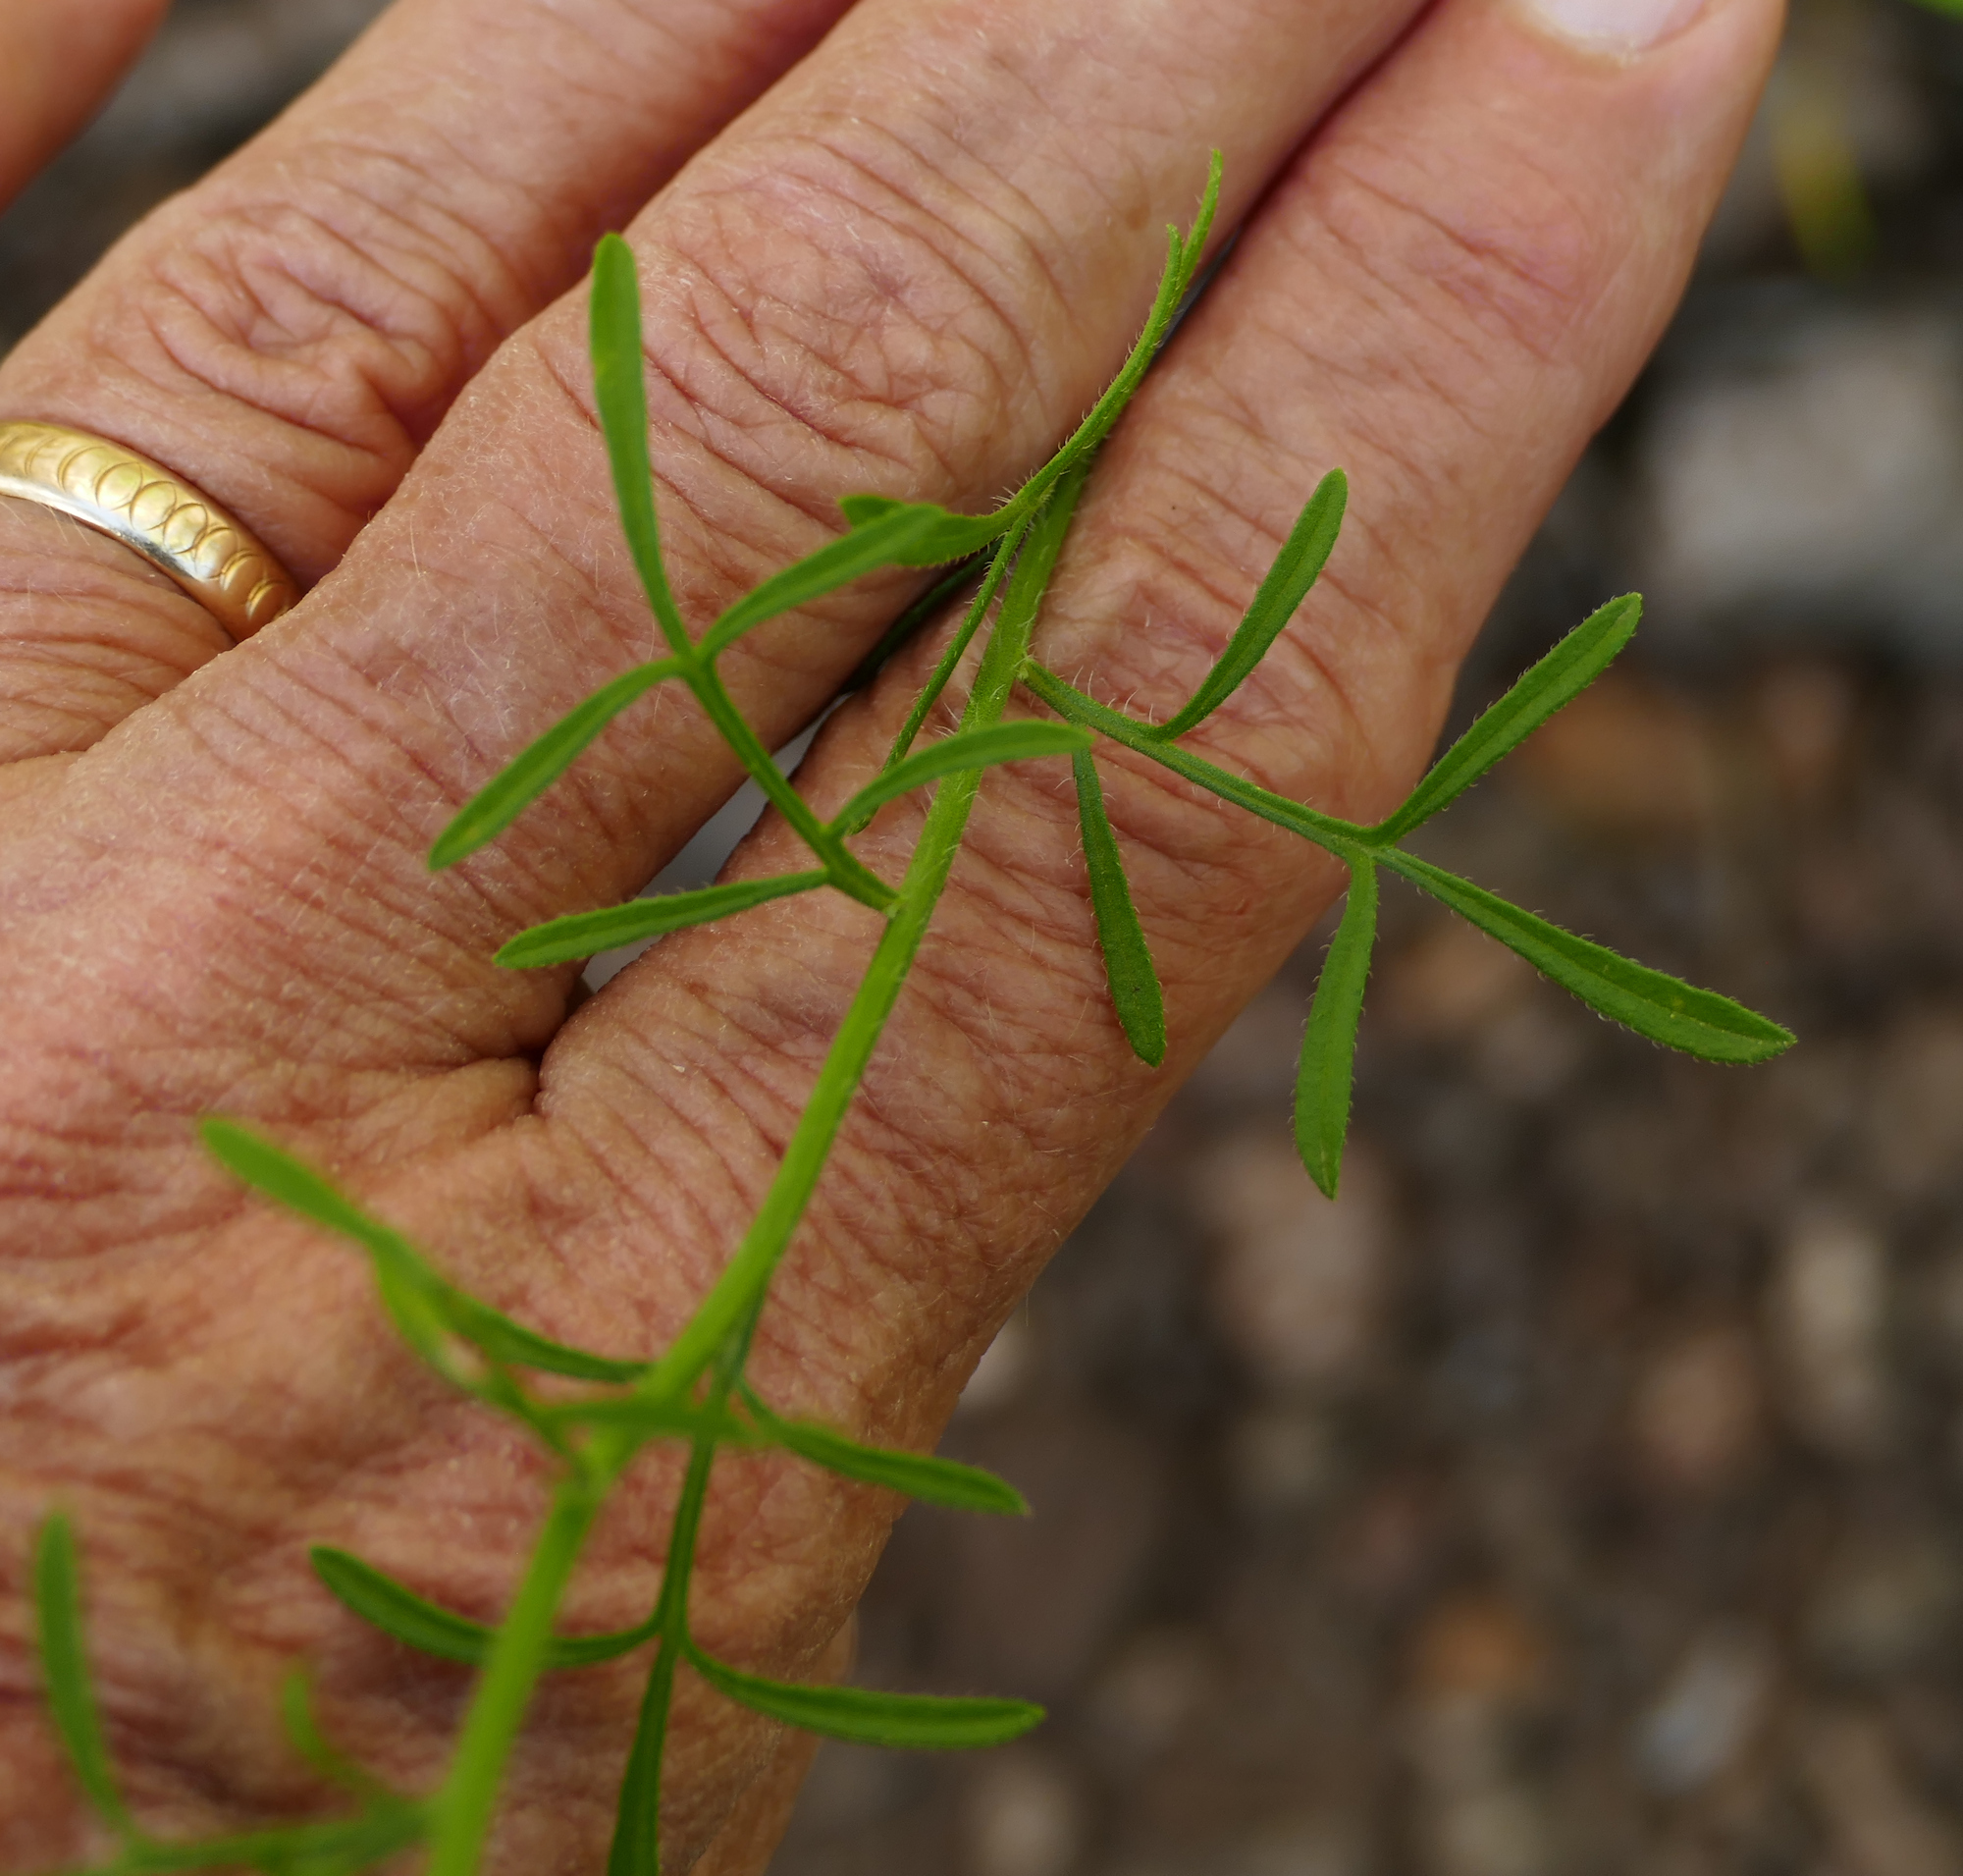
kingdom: Plantae
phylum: Tracheophyta
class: Magnoliopsida
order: Asterales
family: Asteraceae
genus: Erigeron
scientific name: Erigeron neomexicanus
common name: New mexico fleabane
